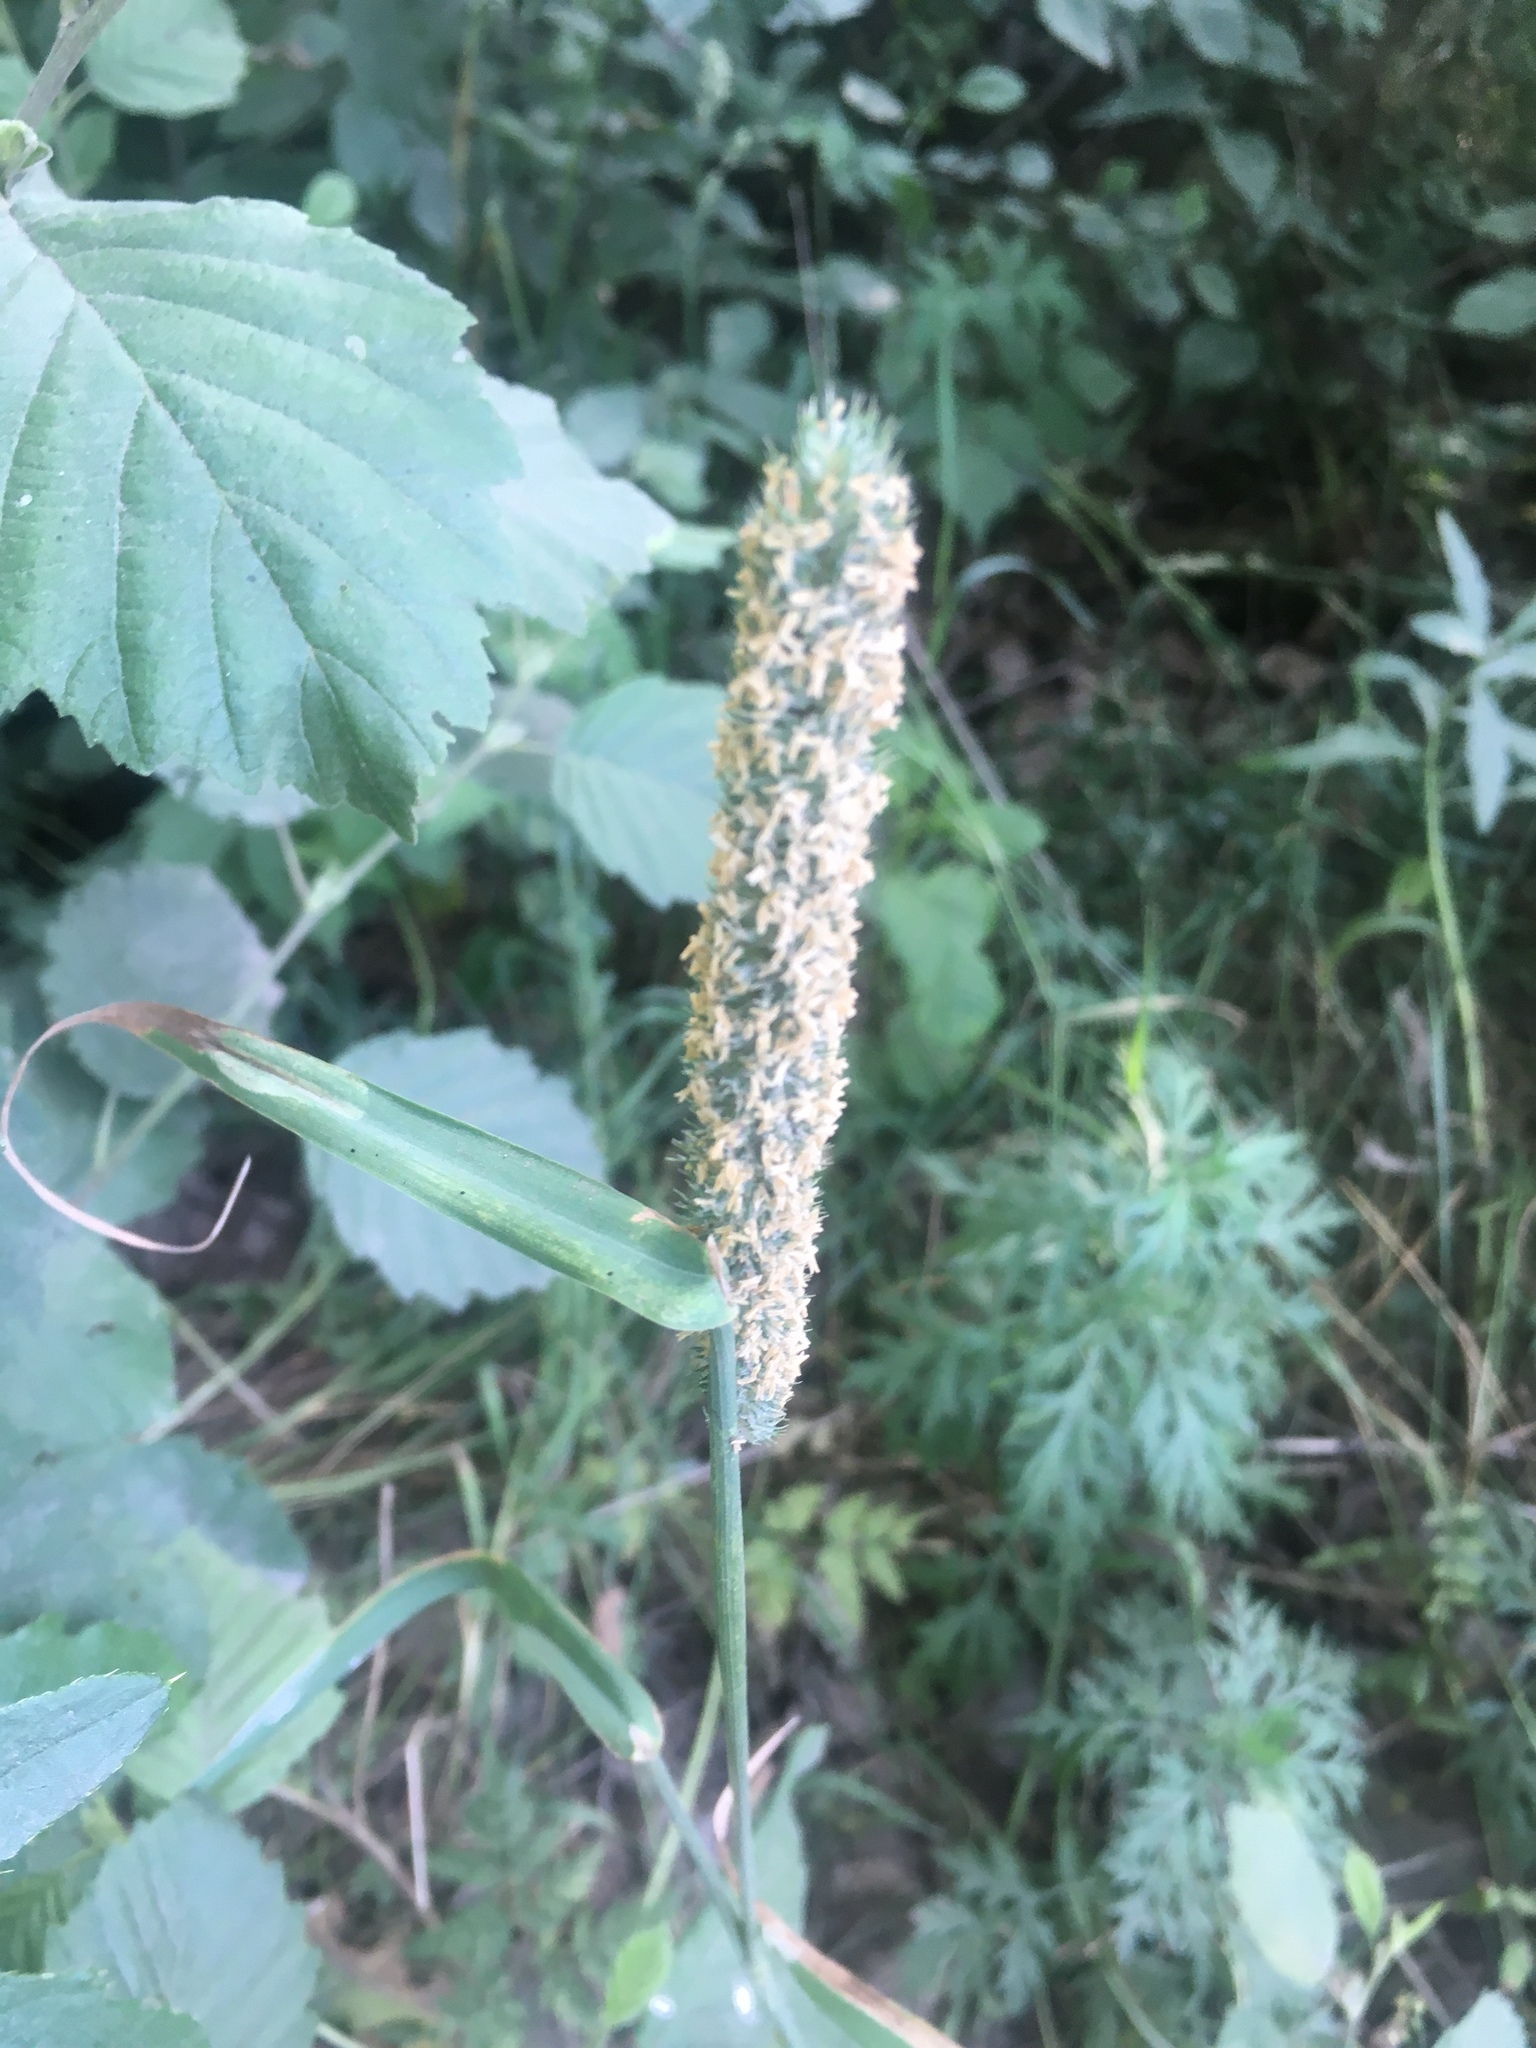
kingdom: Plantae
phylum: Tracheophyta
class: Liliopsida
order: Poales
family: Poaceae
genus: Phleum
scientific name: Phleum pratense
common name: Timothy grass
